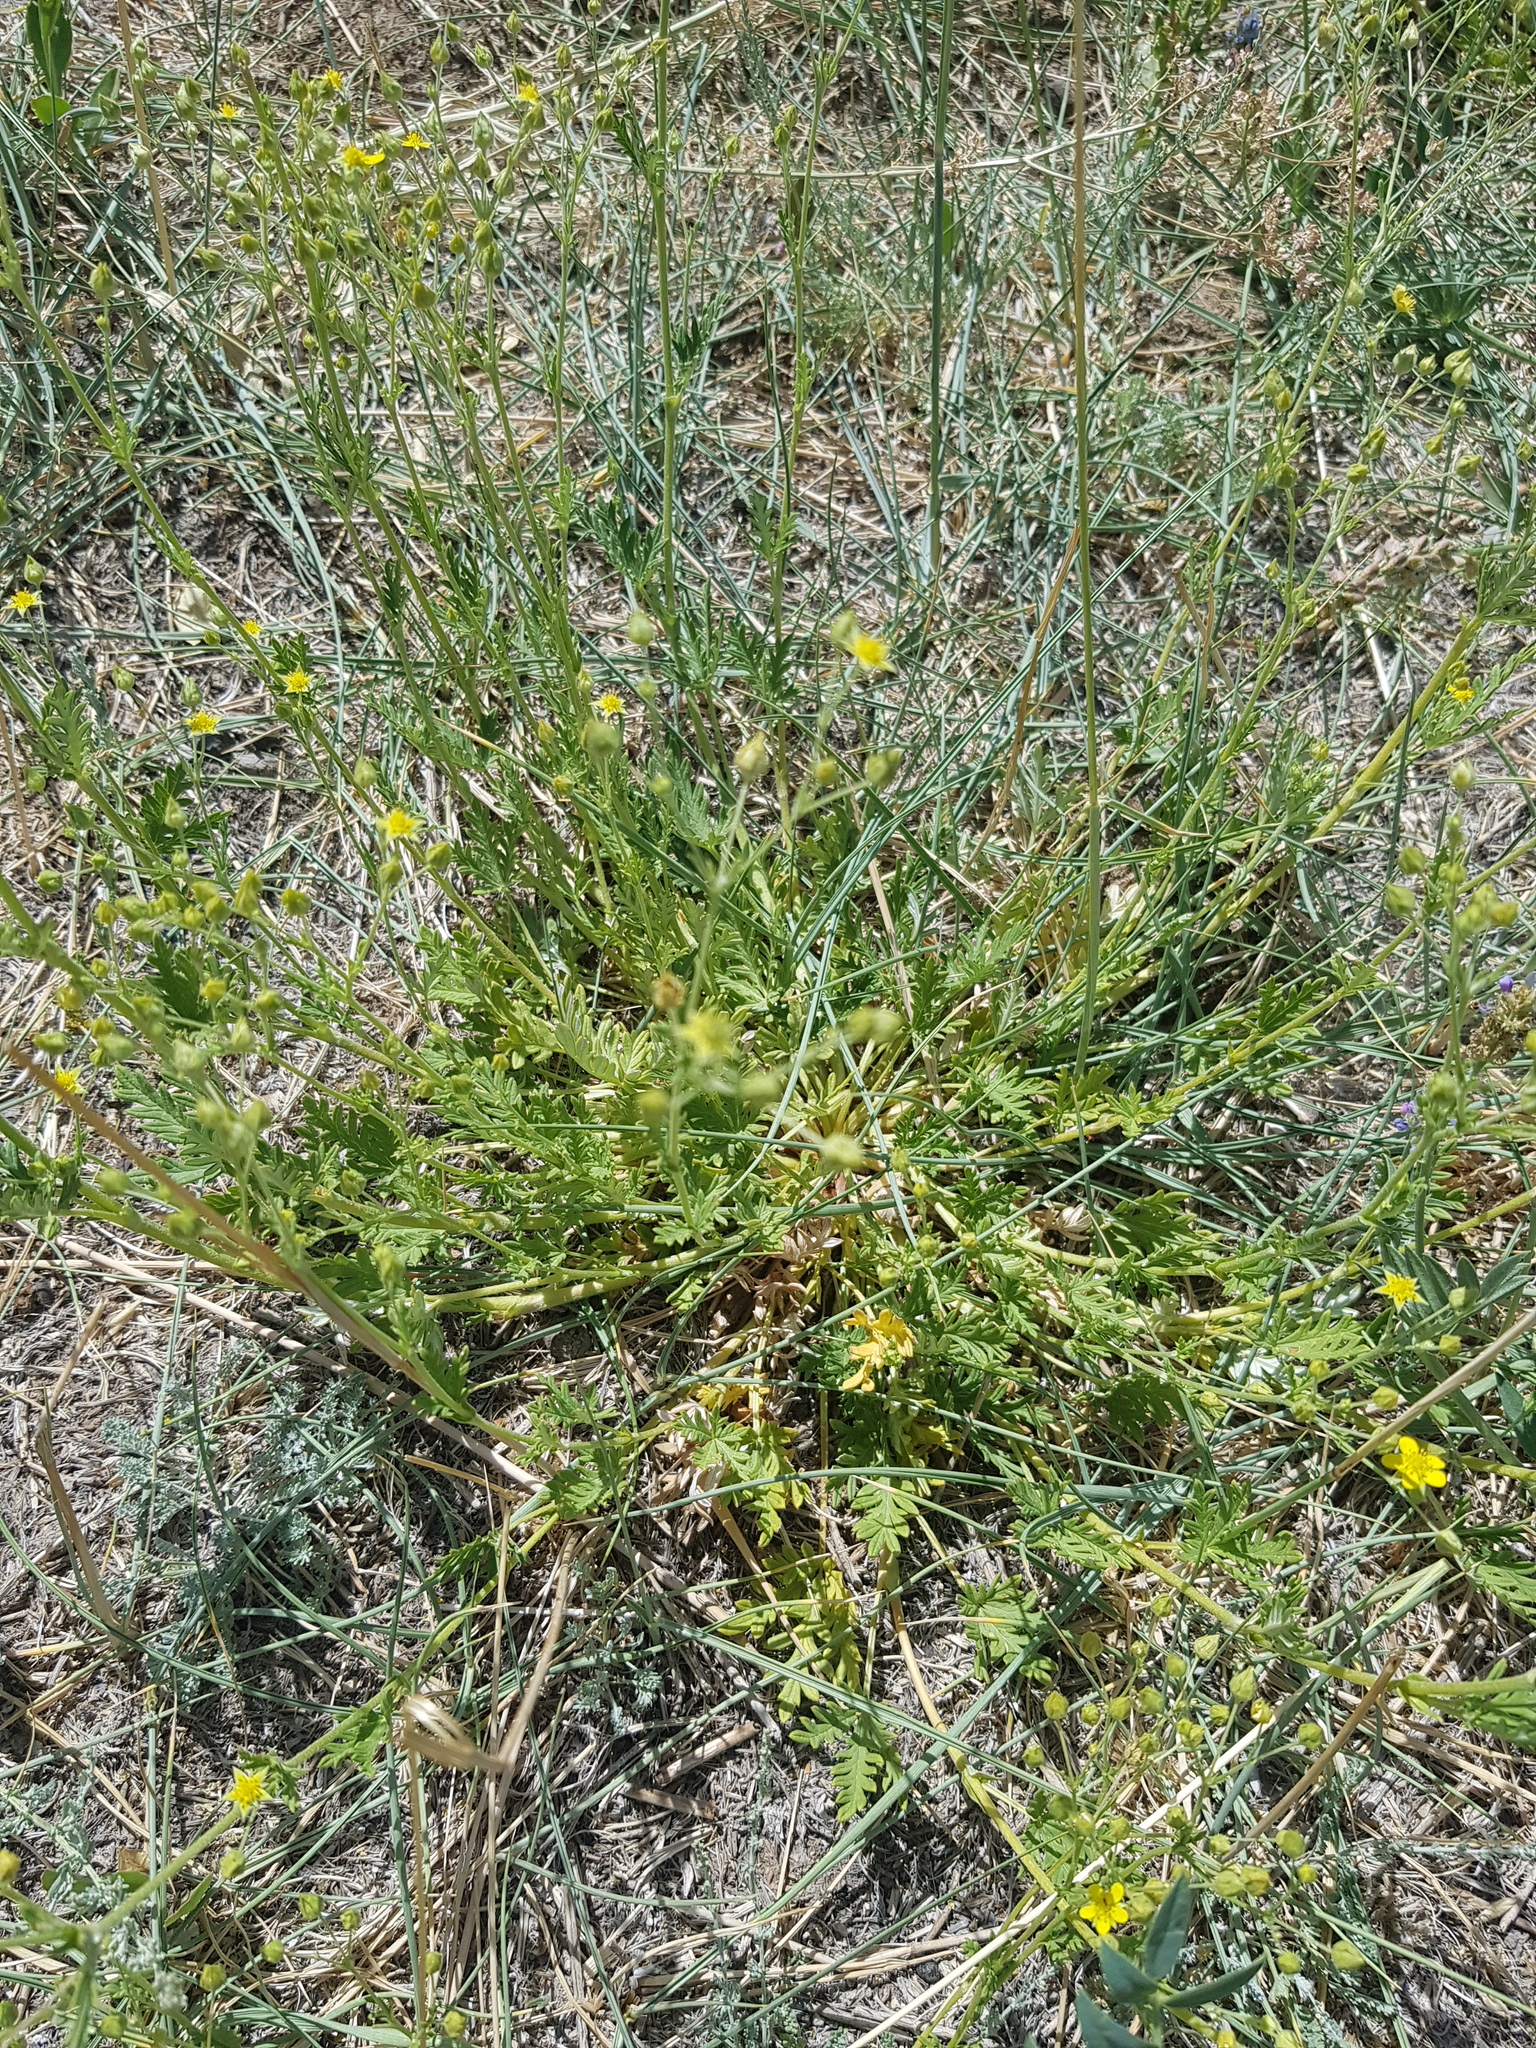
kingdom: Plantae
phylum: Tracheophyta
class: Magnoliopsida
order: Rosales
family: Rosaceae
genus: Potentilla
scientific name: Potentilla virgata
